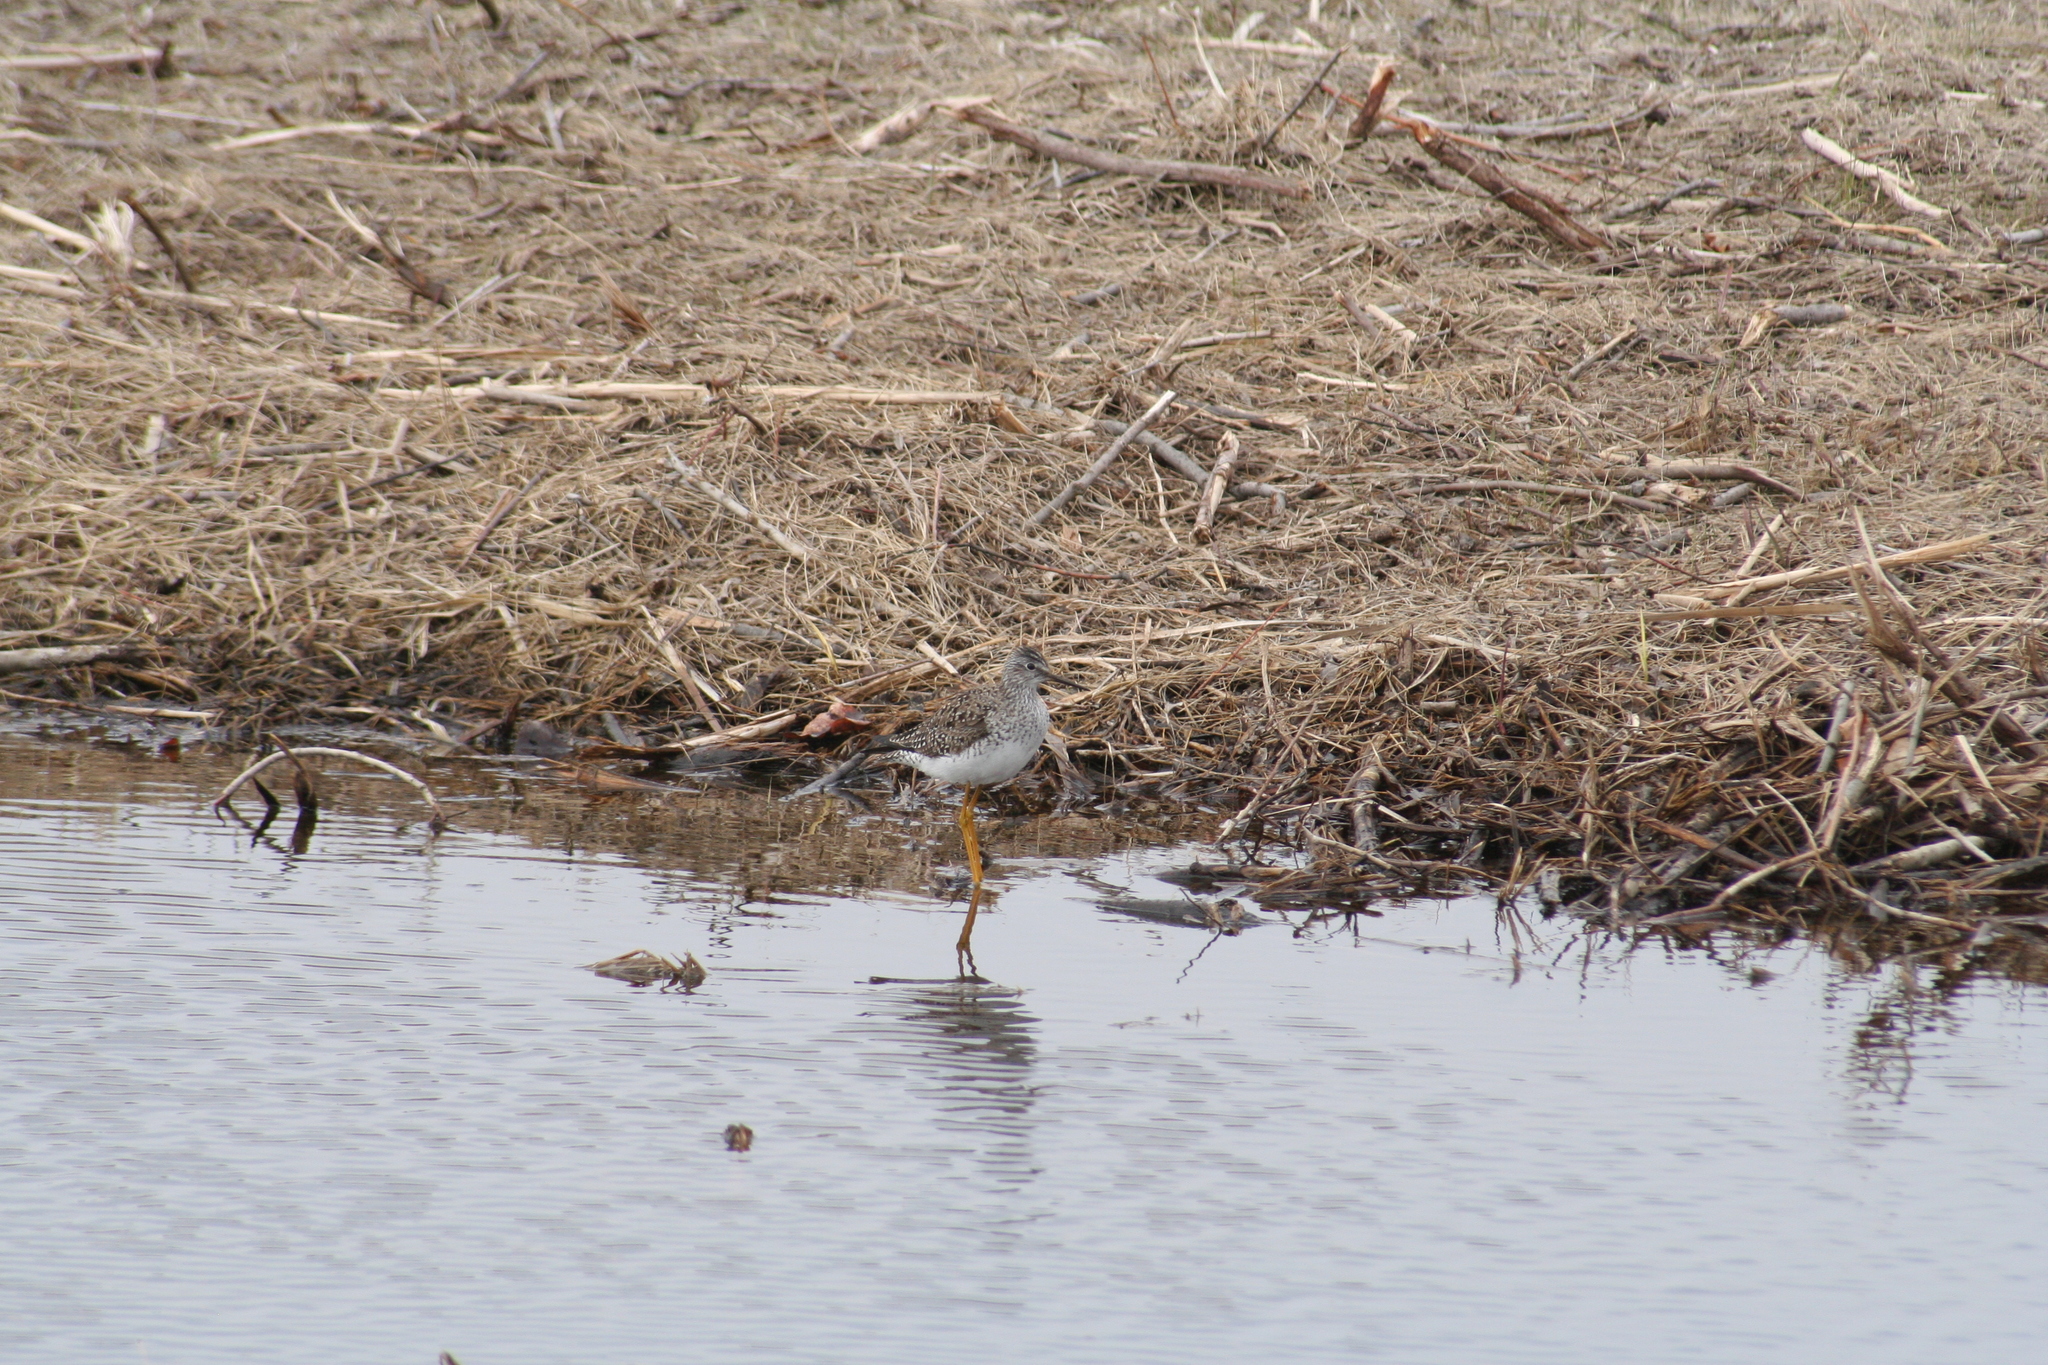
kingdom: Animalia
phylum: Chordata
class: Aves
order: Charadriiformes
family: Scolopacidae
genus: Tringa
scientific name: Tringa flavipes
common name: Lesser yellowlegs
